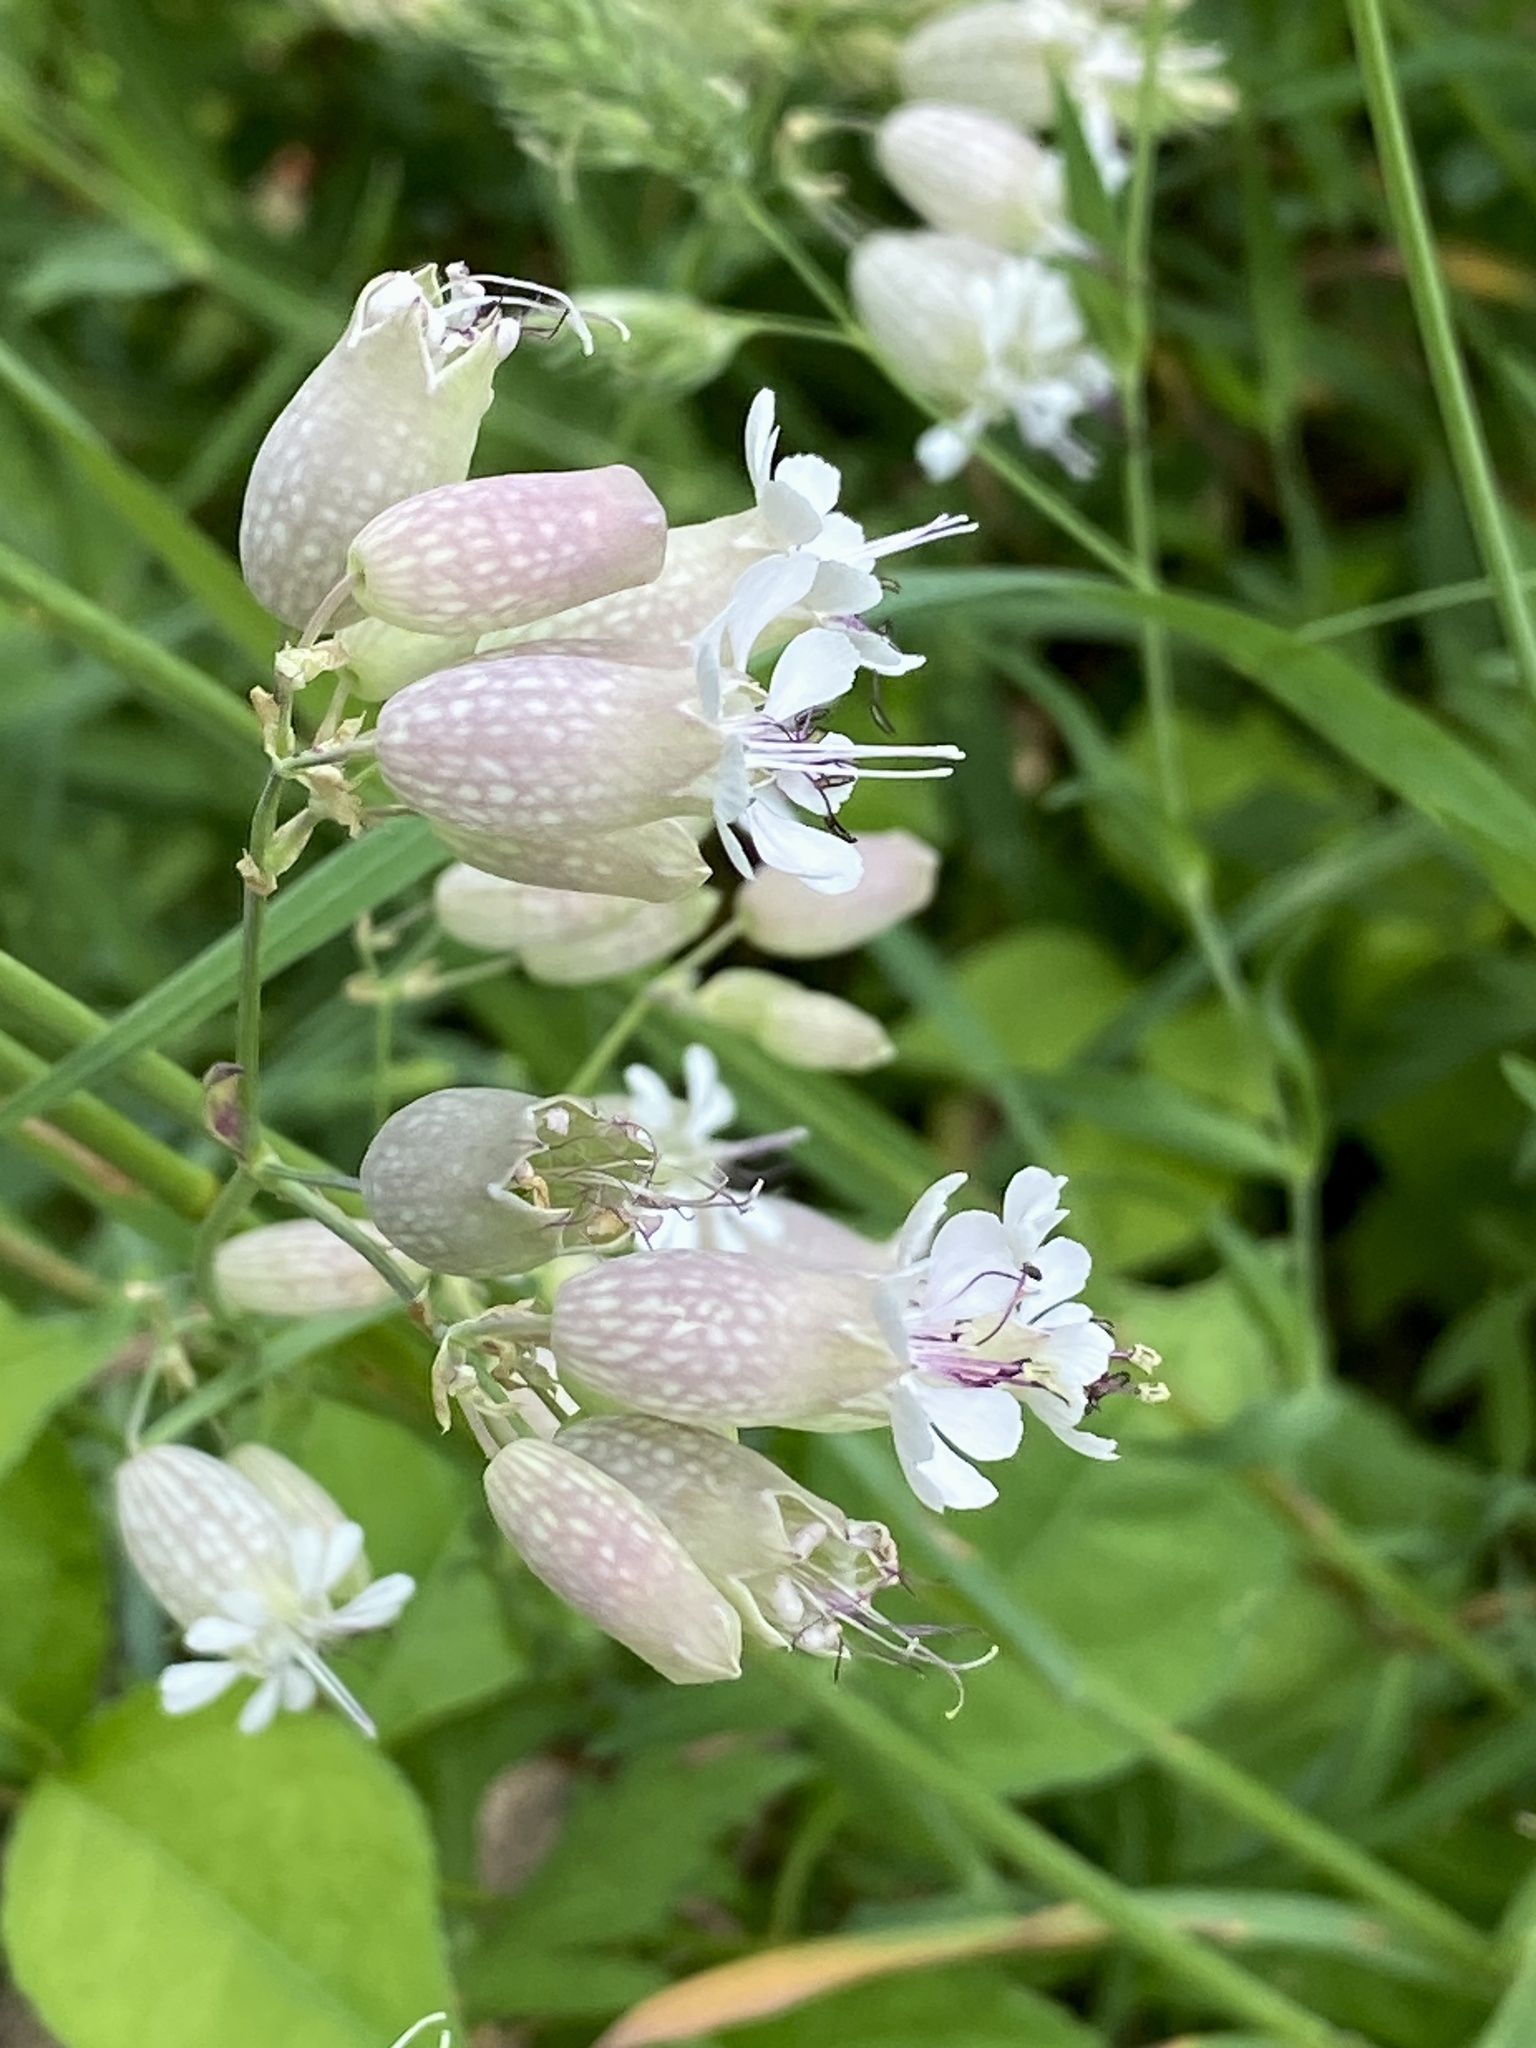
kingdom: Plantae
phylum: Tracheophyta
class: Magnoliopsida
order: Caryophyllales
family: Caryophyllaceae
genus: Silene
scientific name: Silene vulgaris
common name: Bladder campion
